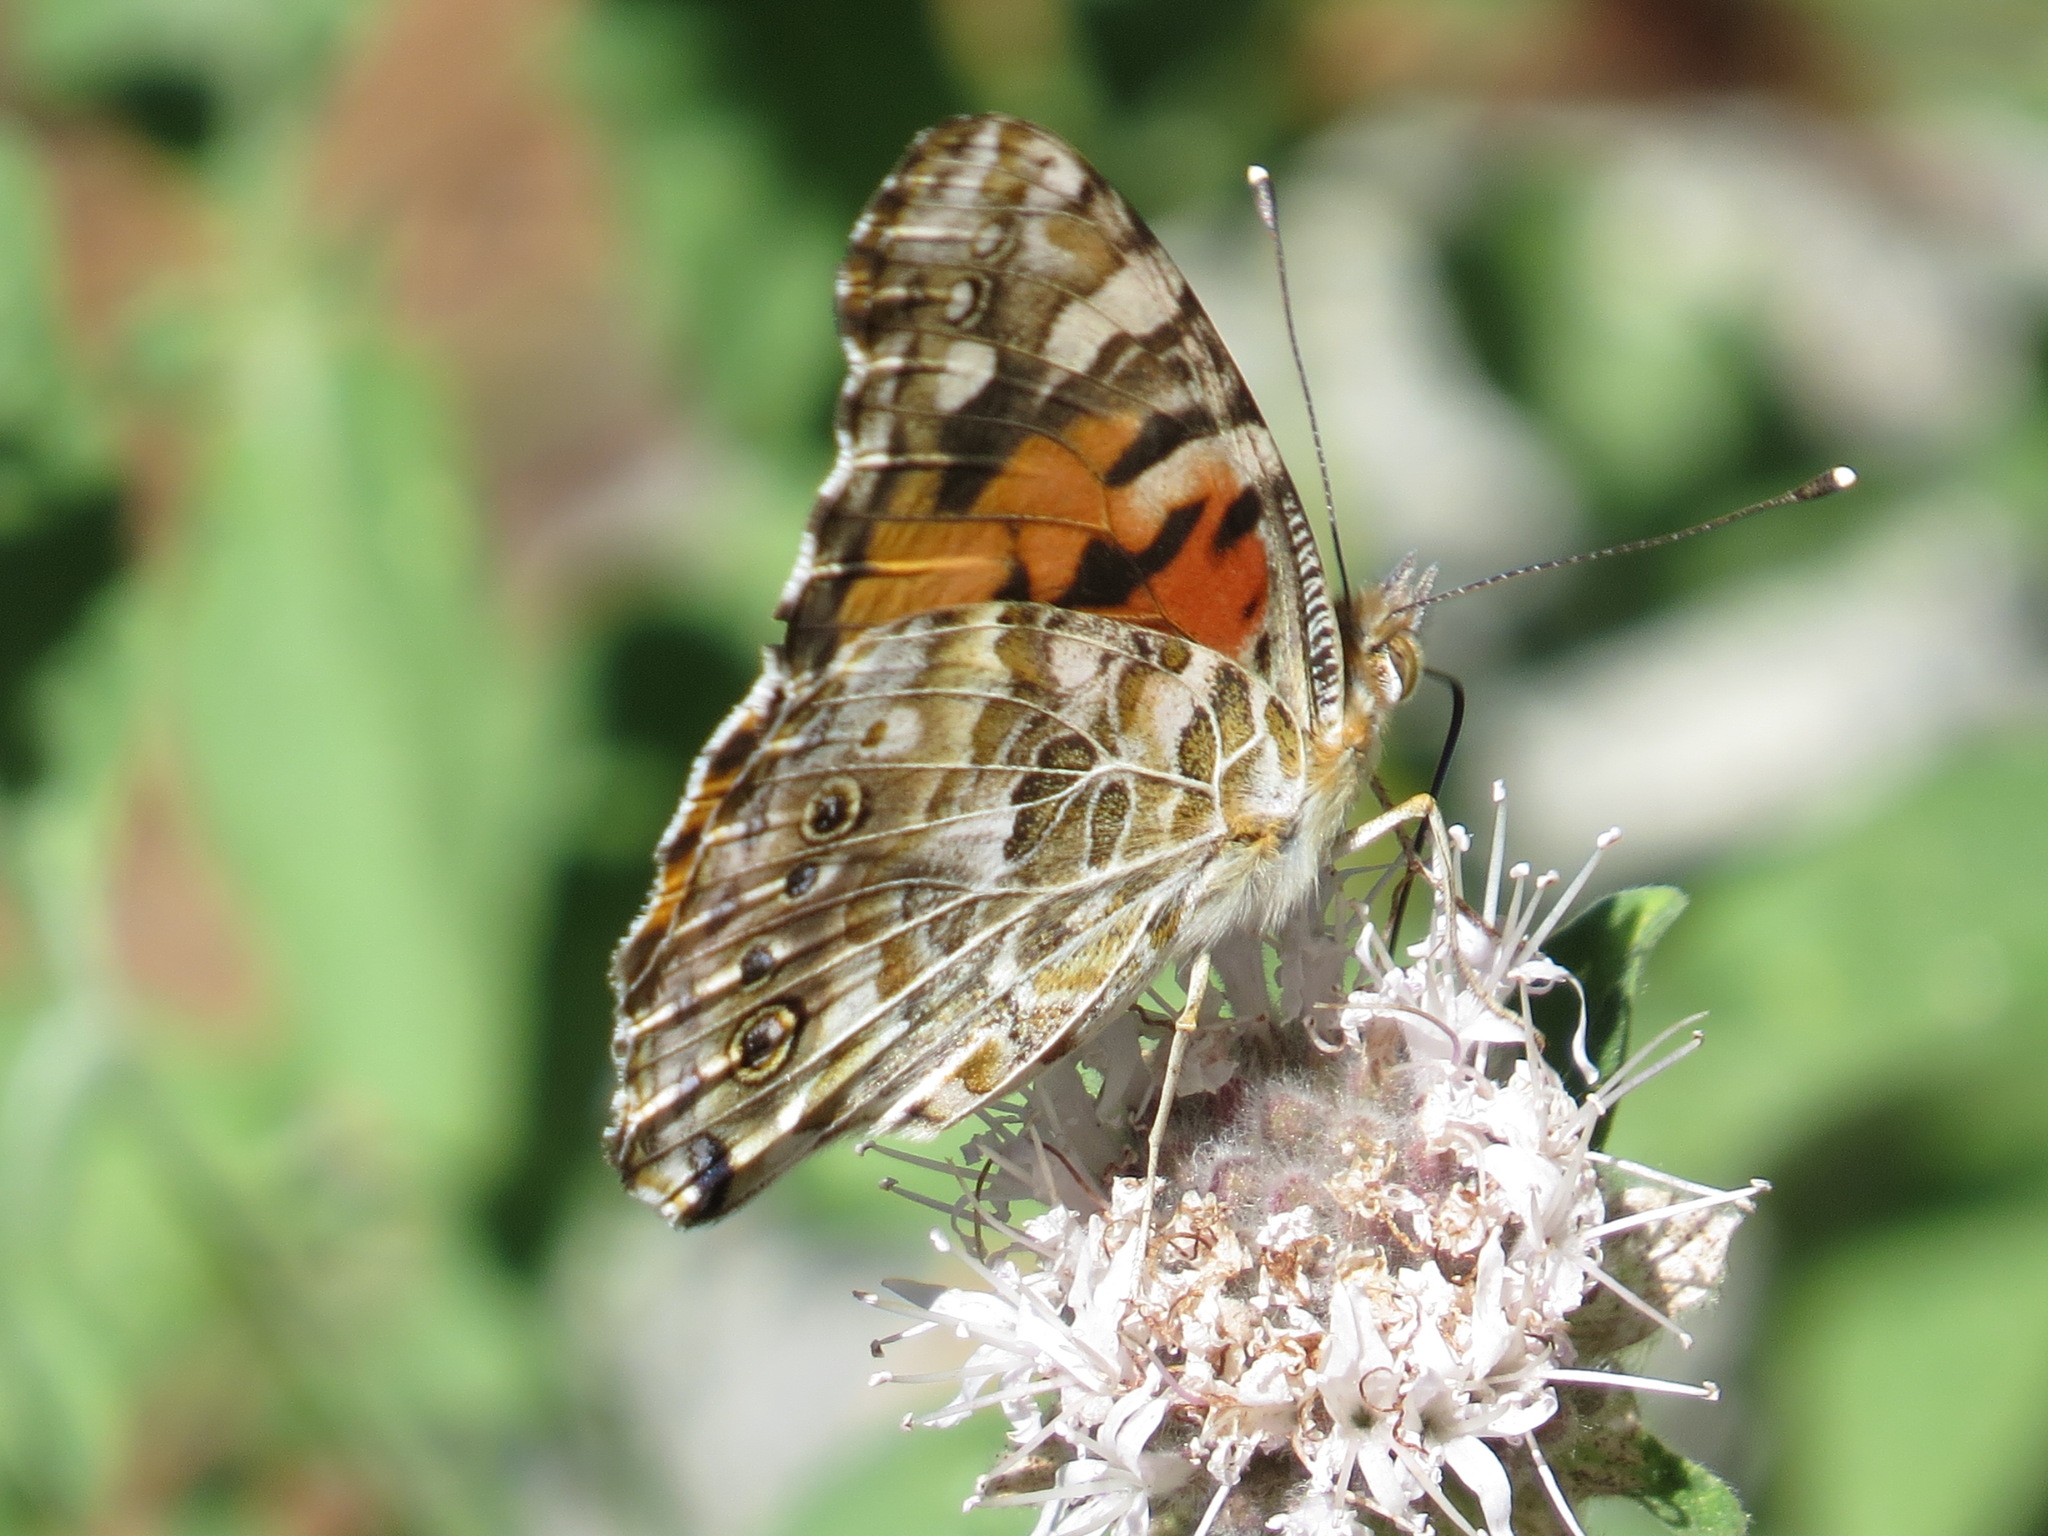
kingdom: Animalia
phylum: Arthropoda
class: Insecta
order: Lepidoptera
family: Nymphalidae
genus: Vanessa
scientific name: Vanessa cardui
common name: Painted lady
